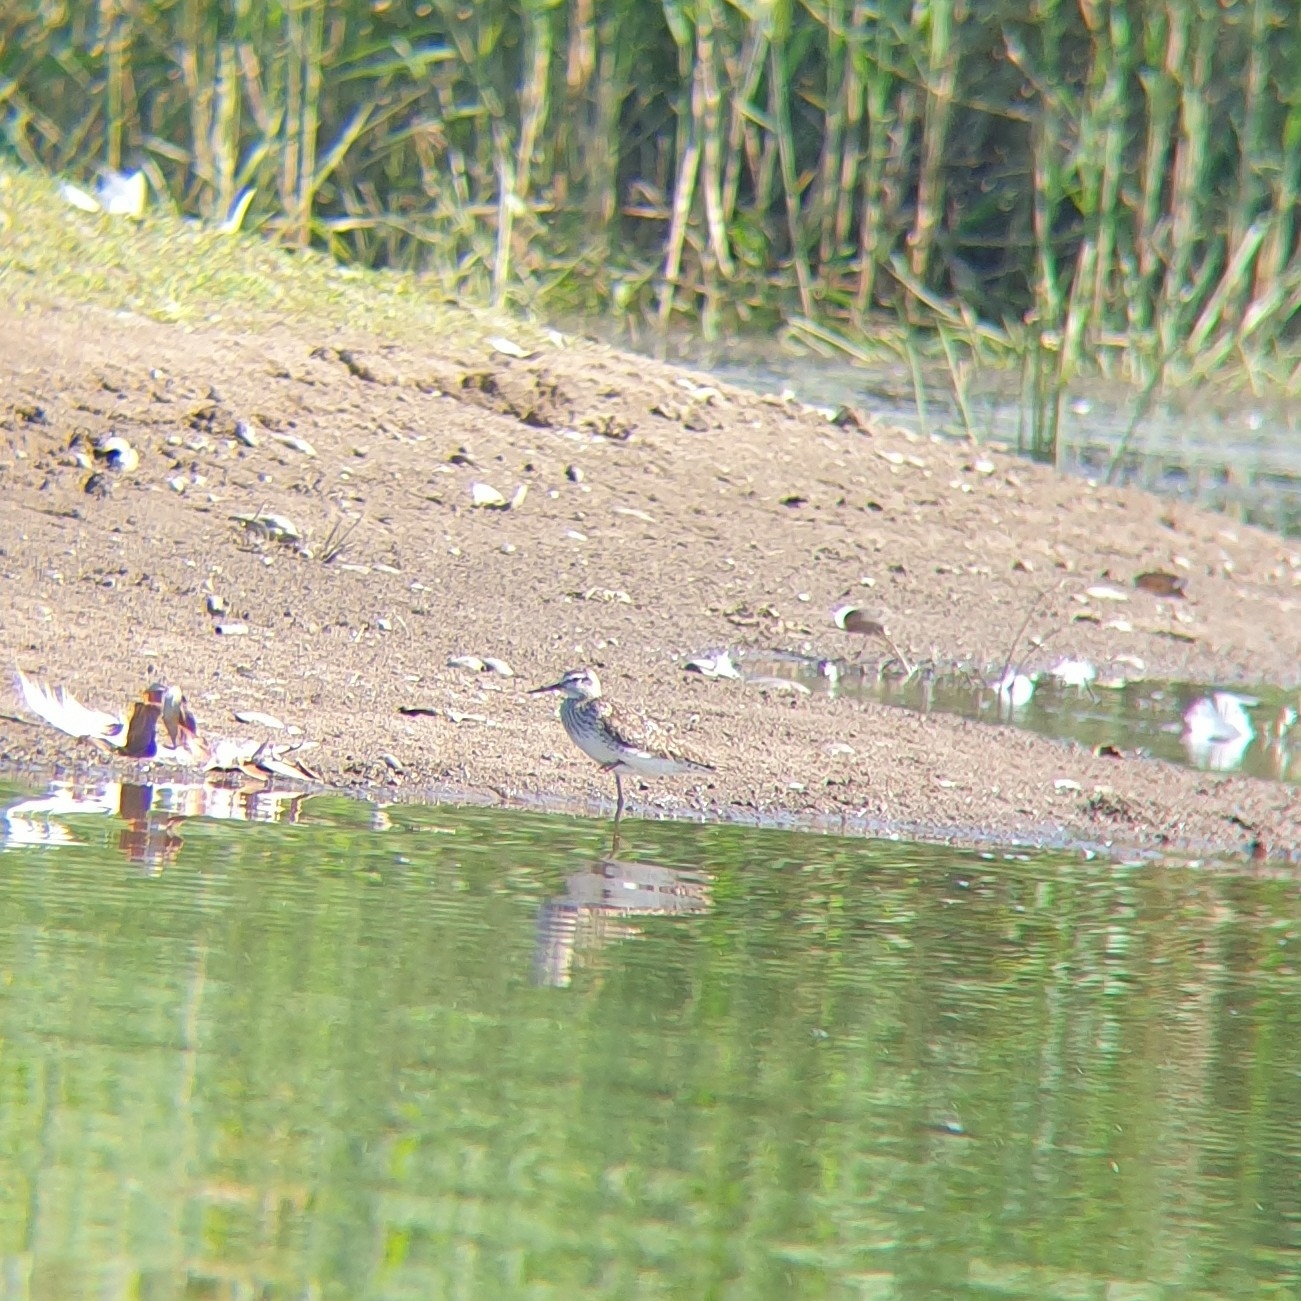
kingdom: Animalia
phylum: Chordata
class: Aves
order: Charadriiformes
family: Scolopacidae
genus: Tringa
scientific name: Tringa glareola
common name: Wood sandpiper
